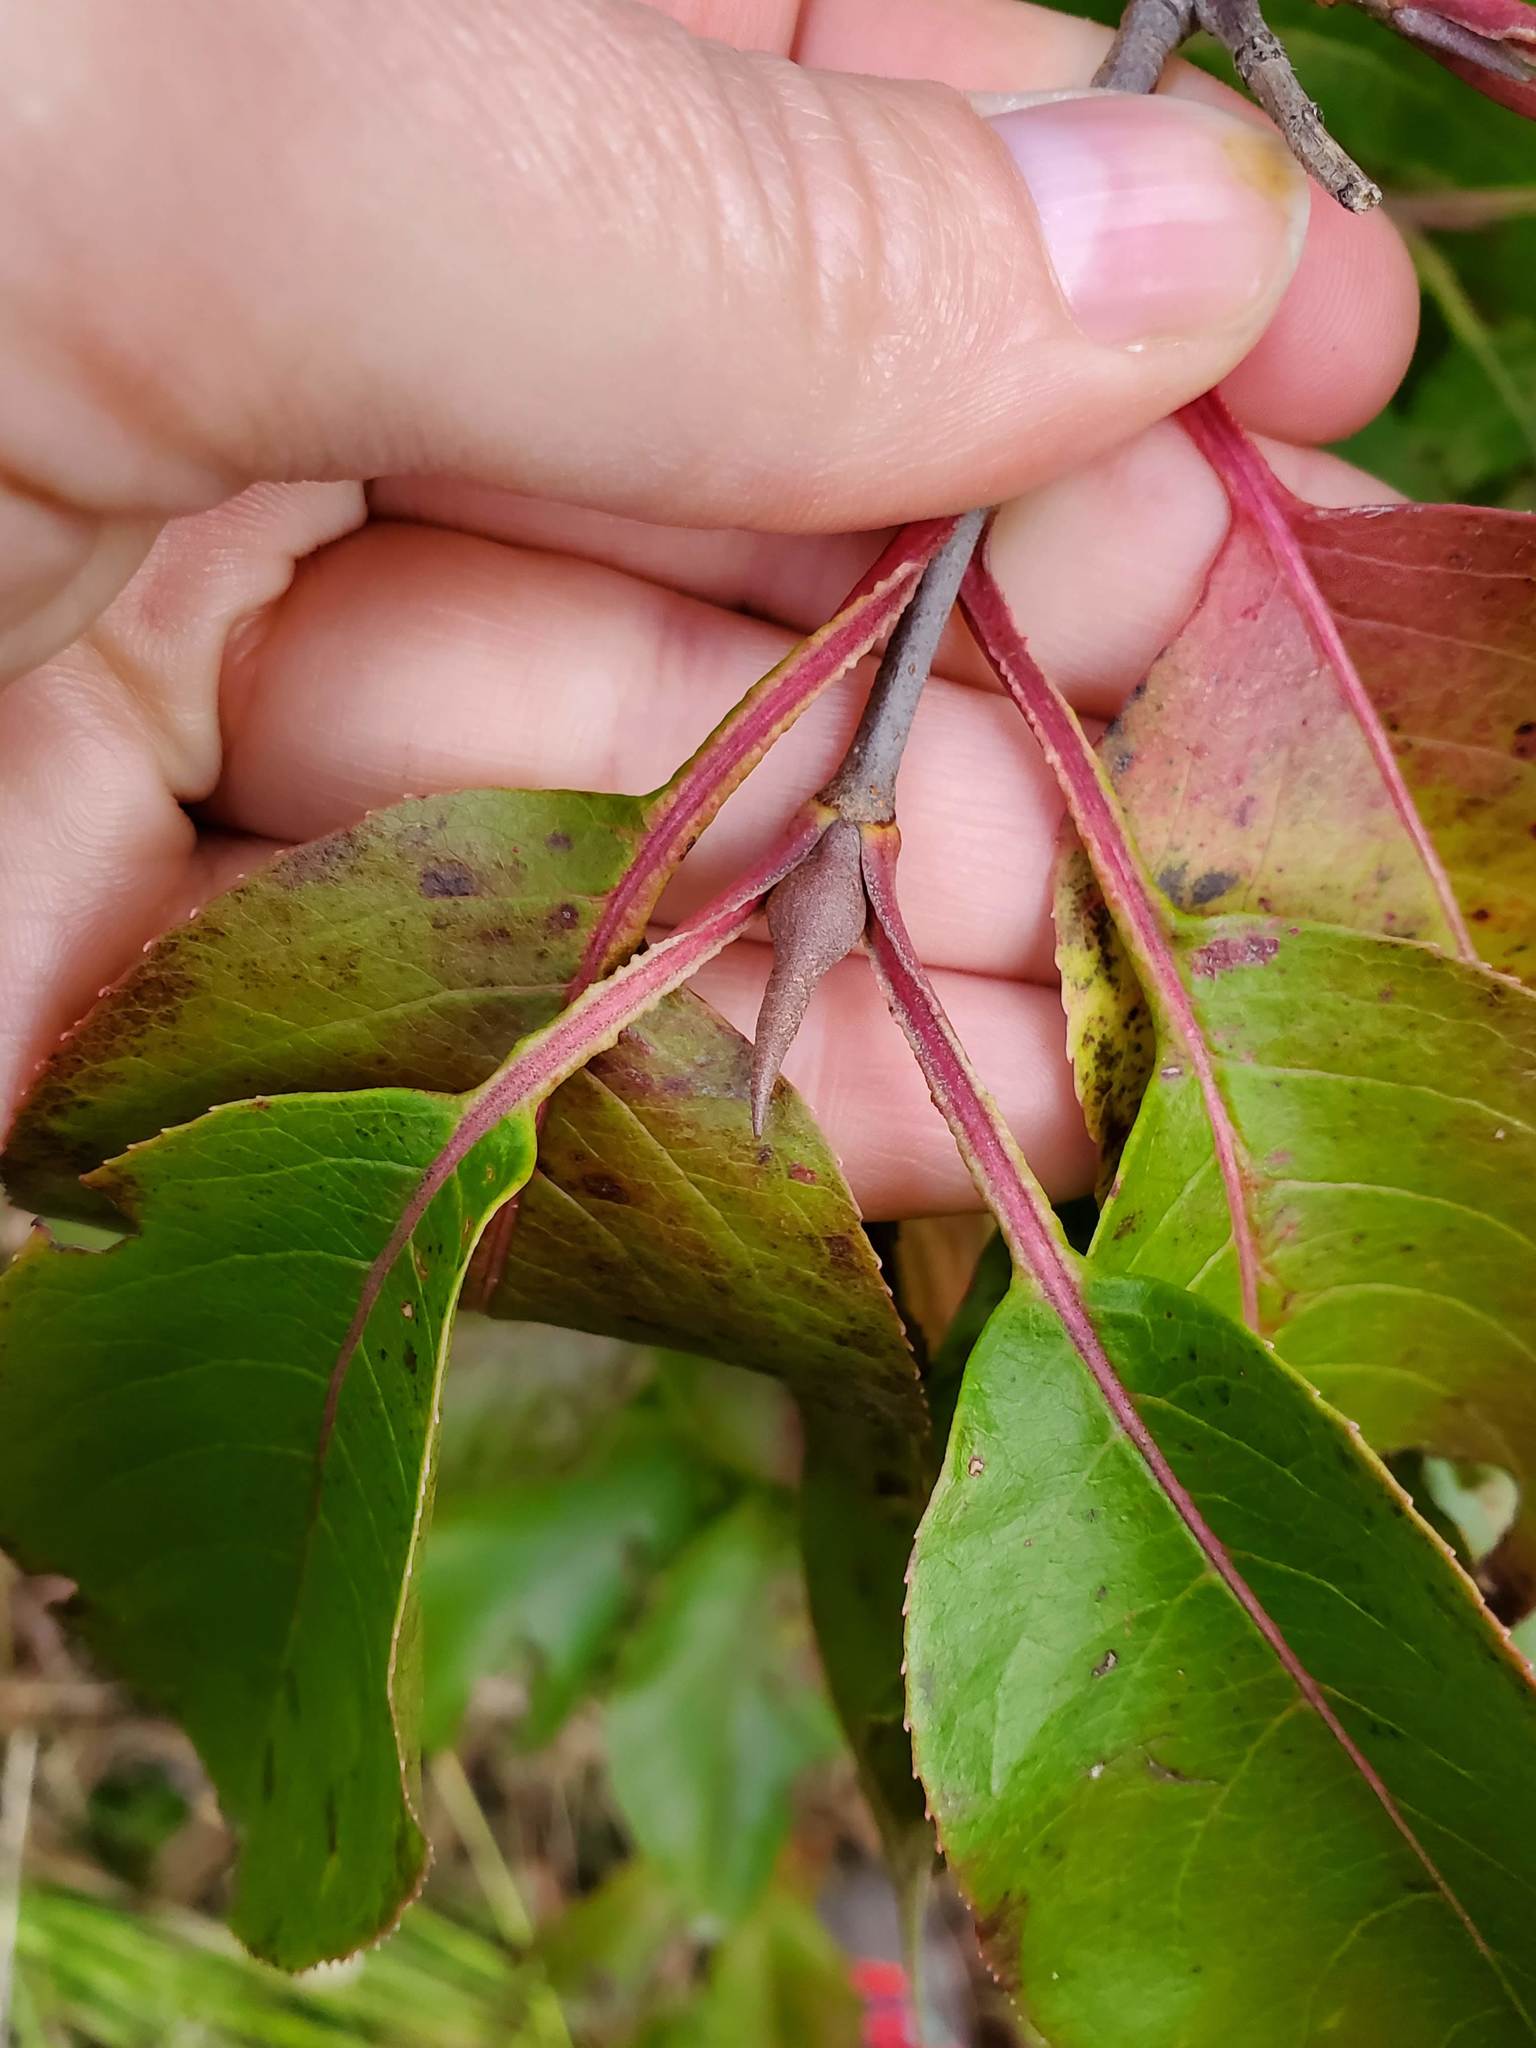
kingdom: Plantae
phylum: Tracheophyta
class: Magnoliopsida
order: Dipsacales
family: Viburnaceae
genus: Viburnum
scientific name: Viburnum lentago
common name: Black haw
